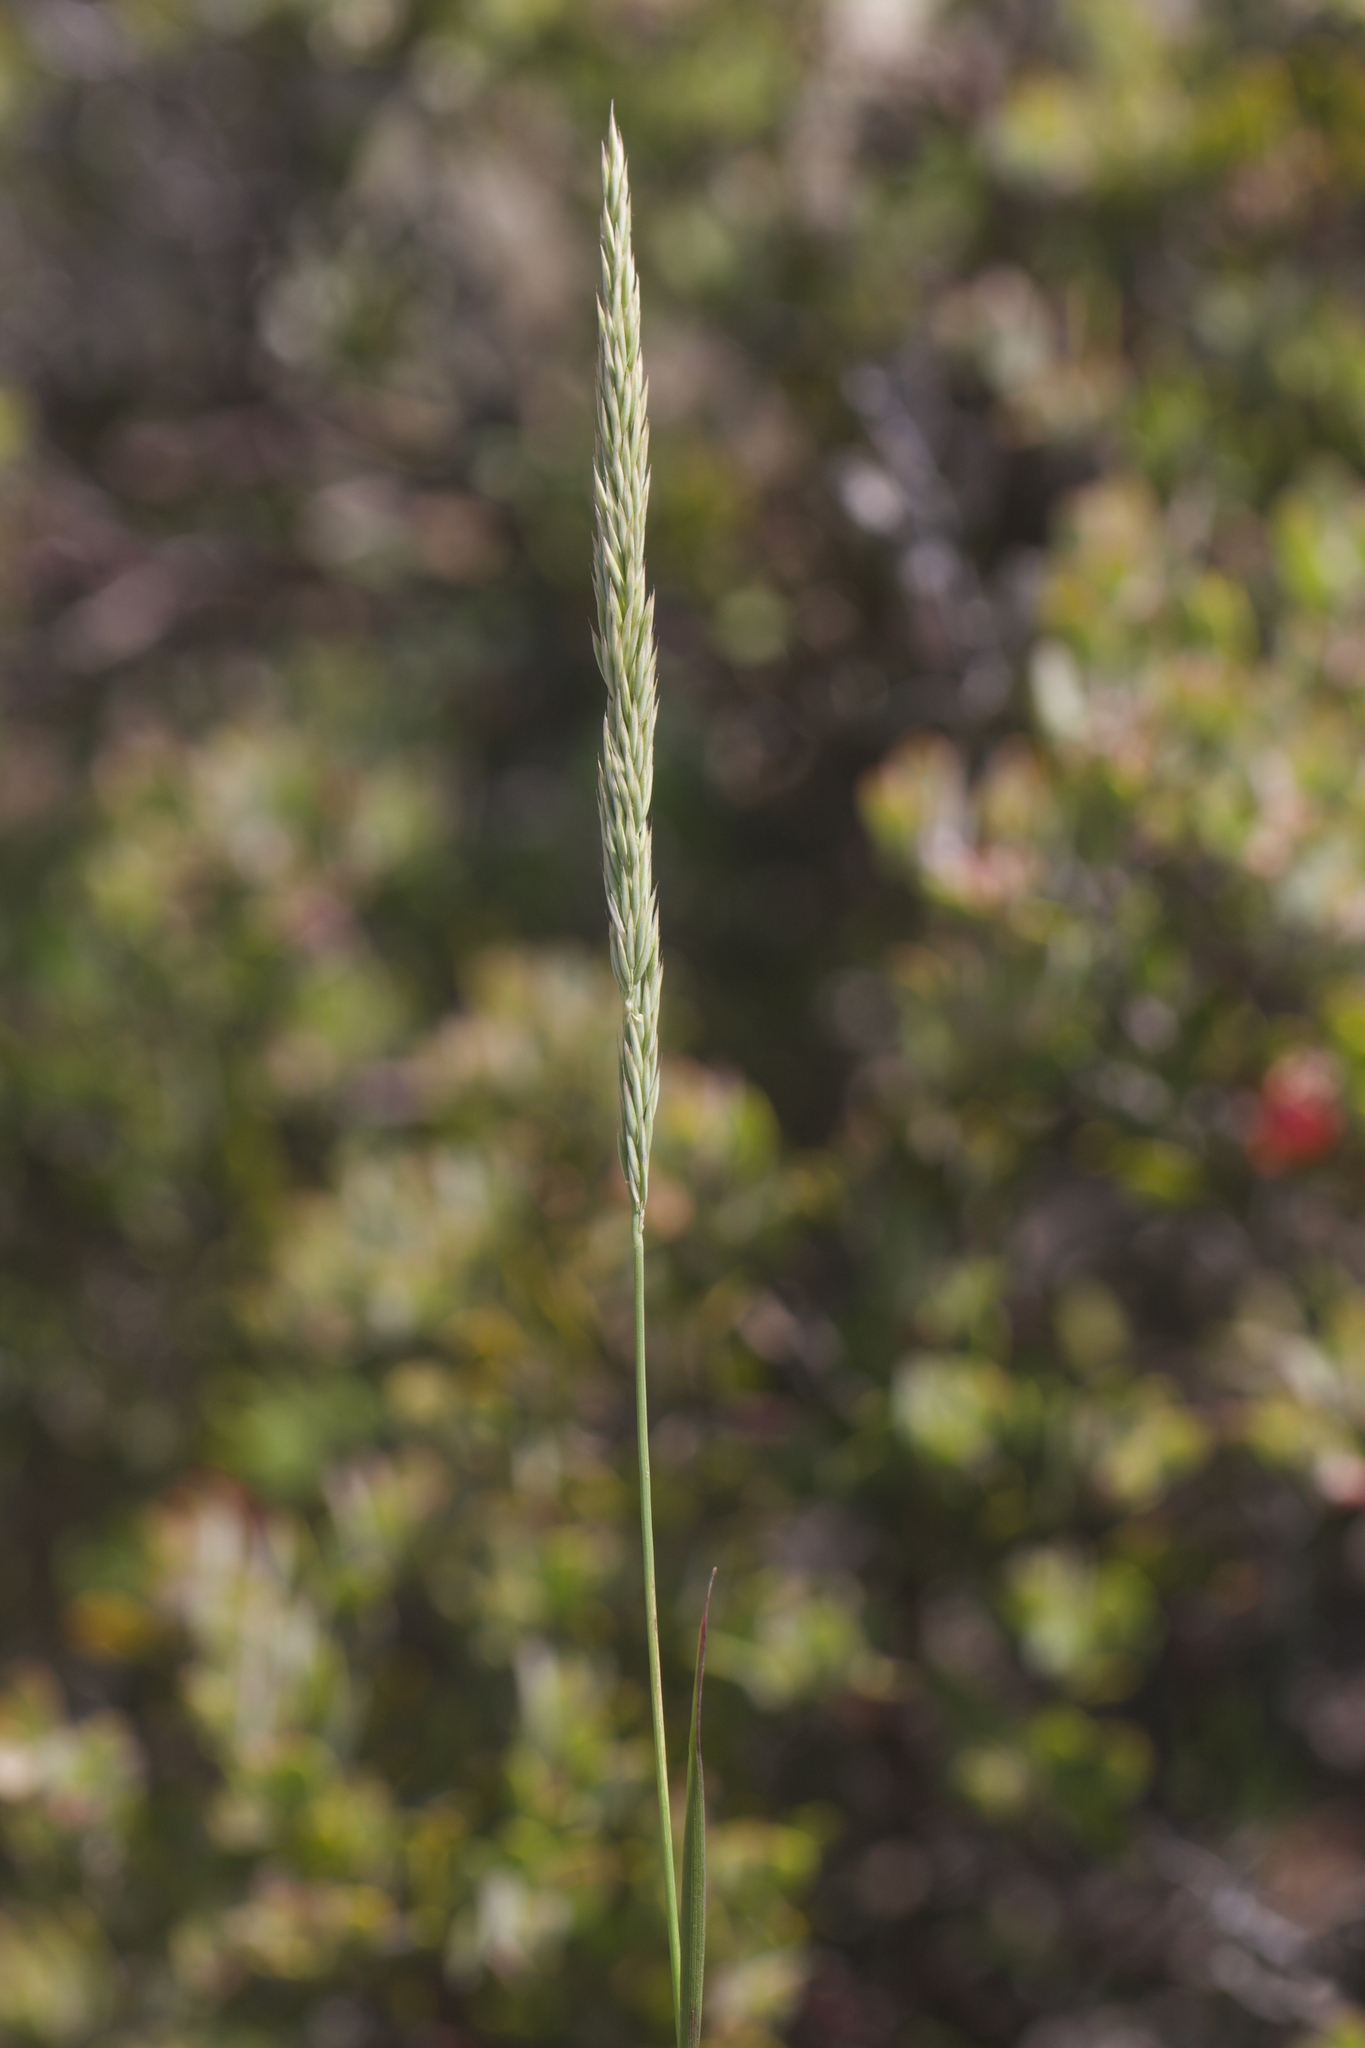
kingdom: Plantae
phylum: Tracheophyta
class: Liliopsida
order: Poales
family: Poaceae
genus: Calamagrostis
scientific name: Calamagrostis ophitidis
